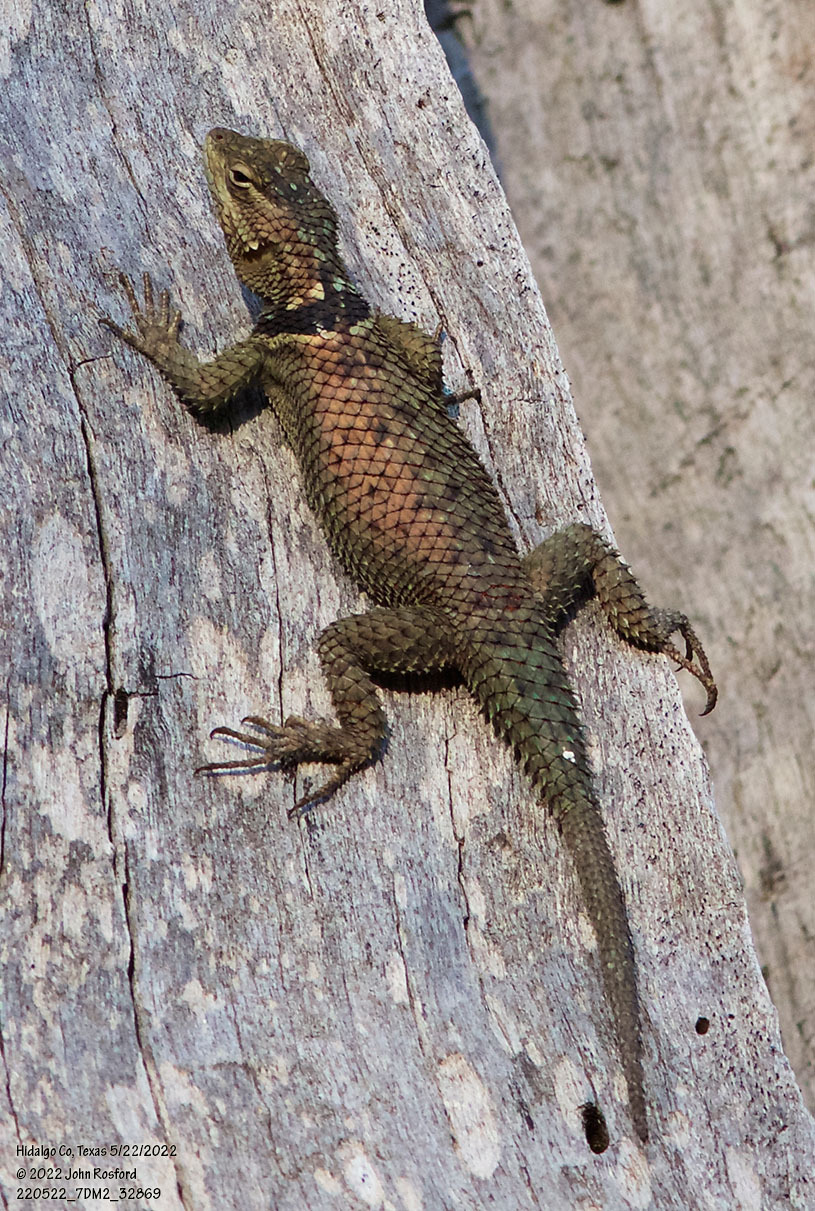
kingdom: Animalia
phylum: Chordata
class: Squamata
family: Phrynosomatidae
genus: Sceloporus
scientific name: Sceloporus cyanogenys
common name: Blue spiny lizard
